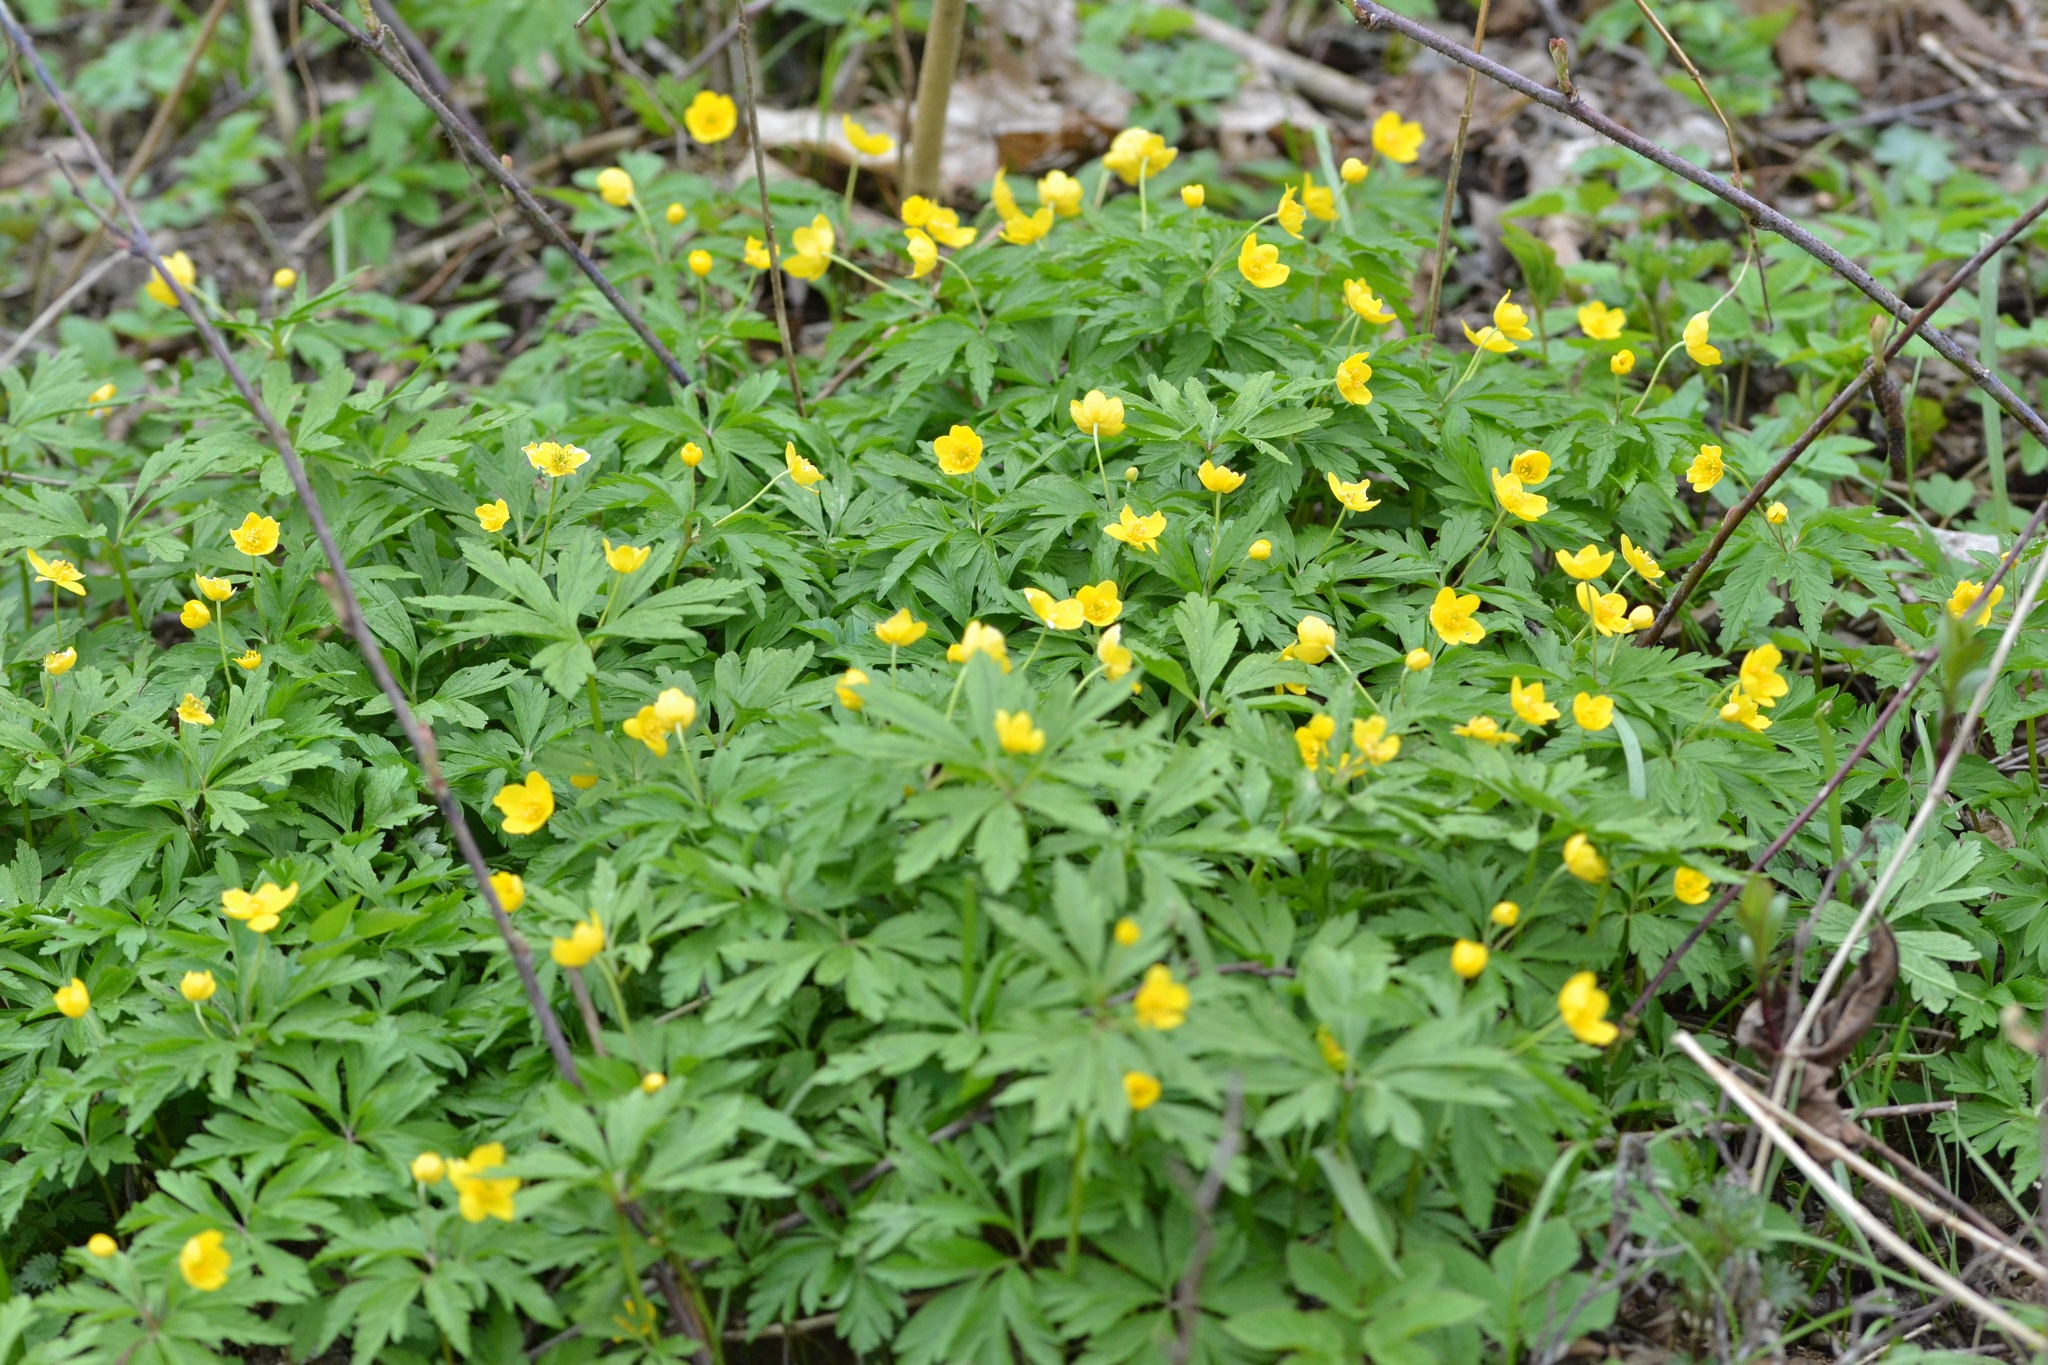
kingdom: Plantae
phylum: Tracheophyta
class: Magnoliopsida
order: Ranunculales
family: Ranunculaceae
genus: Anemone
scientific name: Anemone ranunculoides
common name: Yellow anemone
